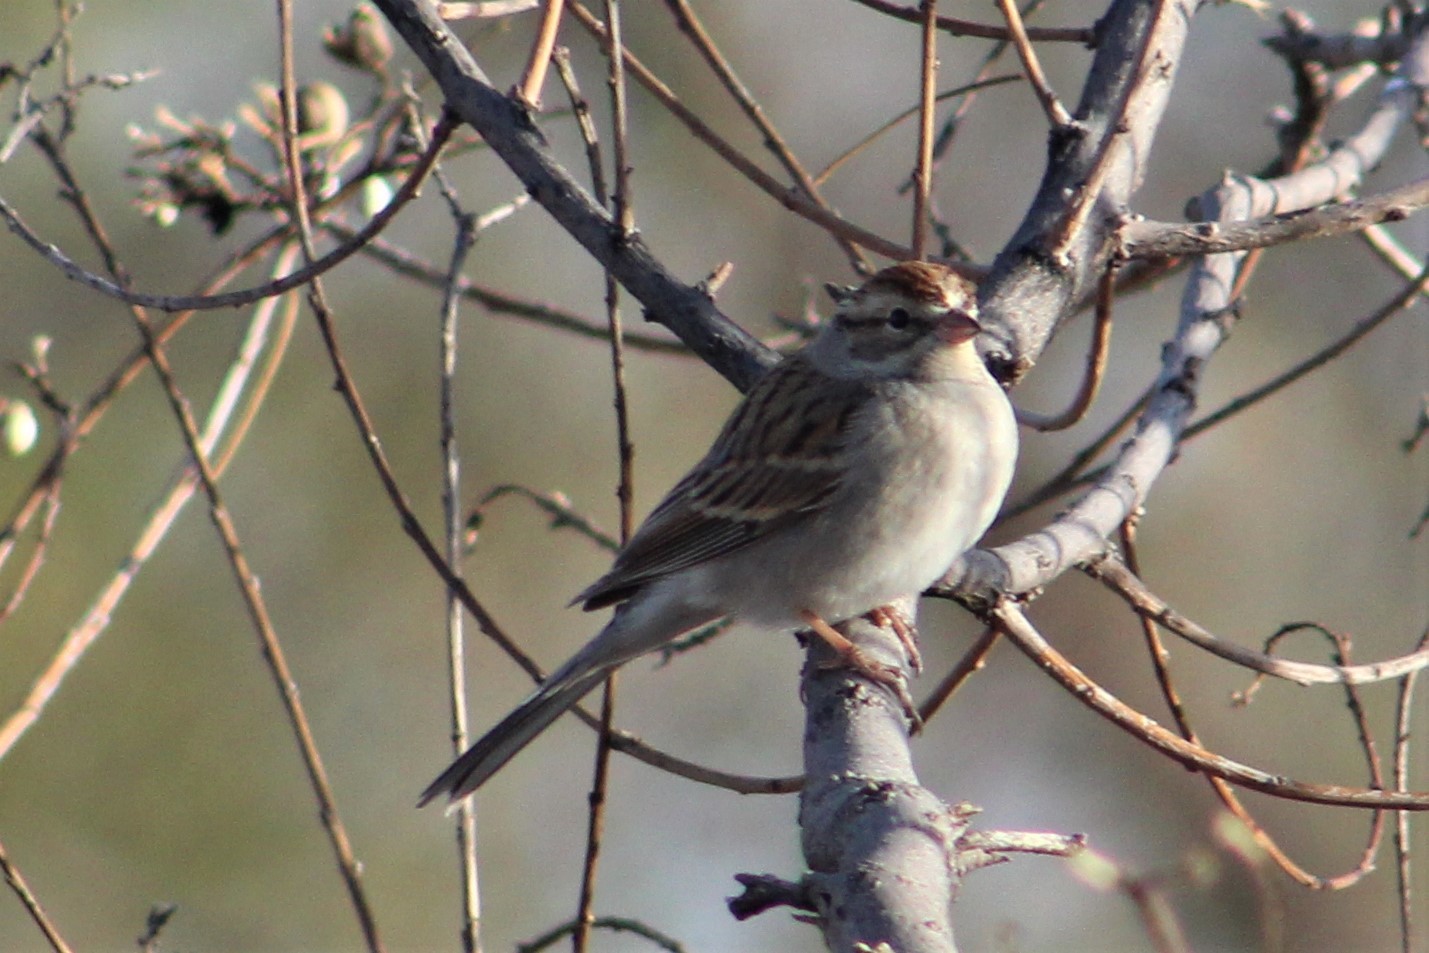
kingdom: Animalia
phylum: Chordata
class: Aves
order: Passeriformes
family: Passerellidae
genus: Spizella
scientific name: Spizella passerina
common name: Chipping sparrow
